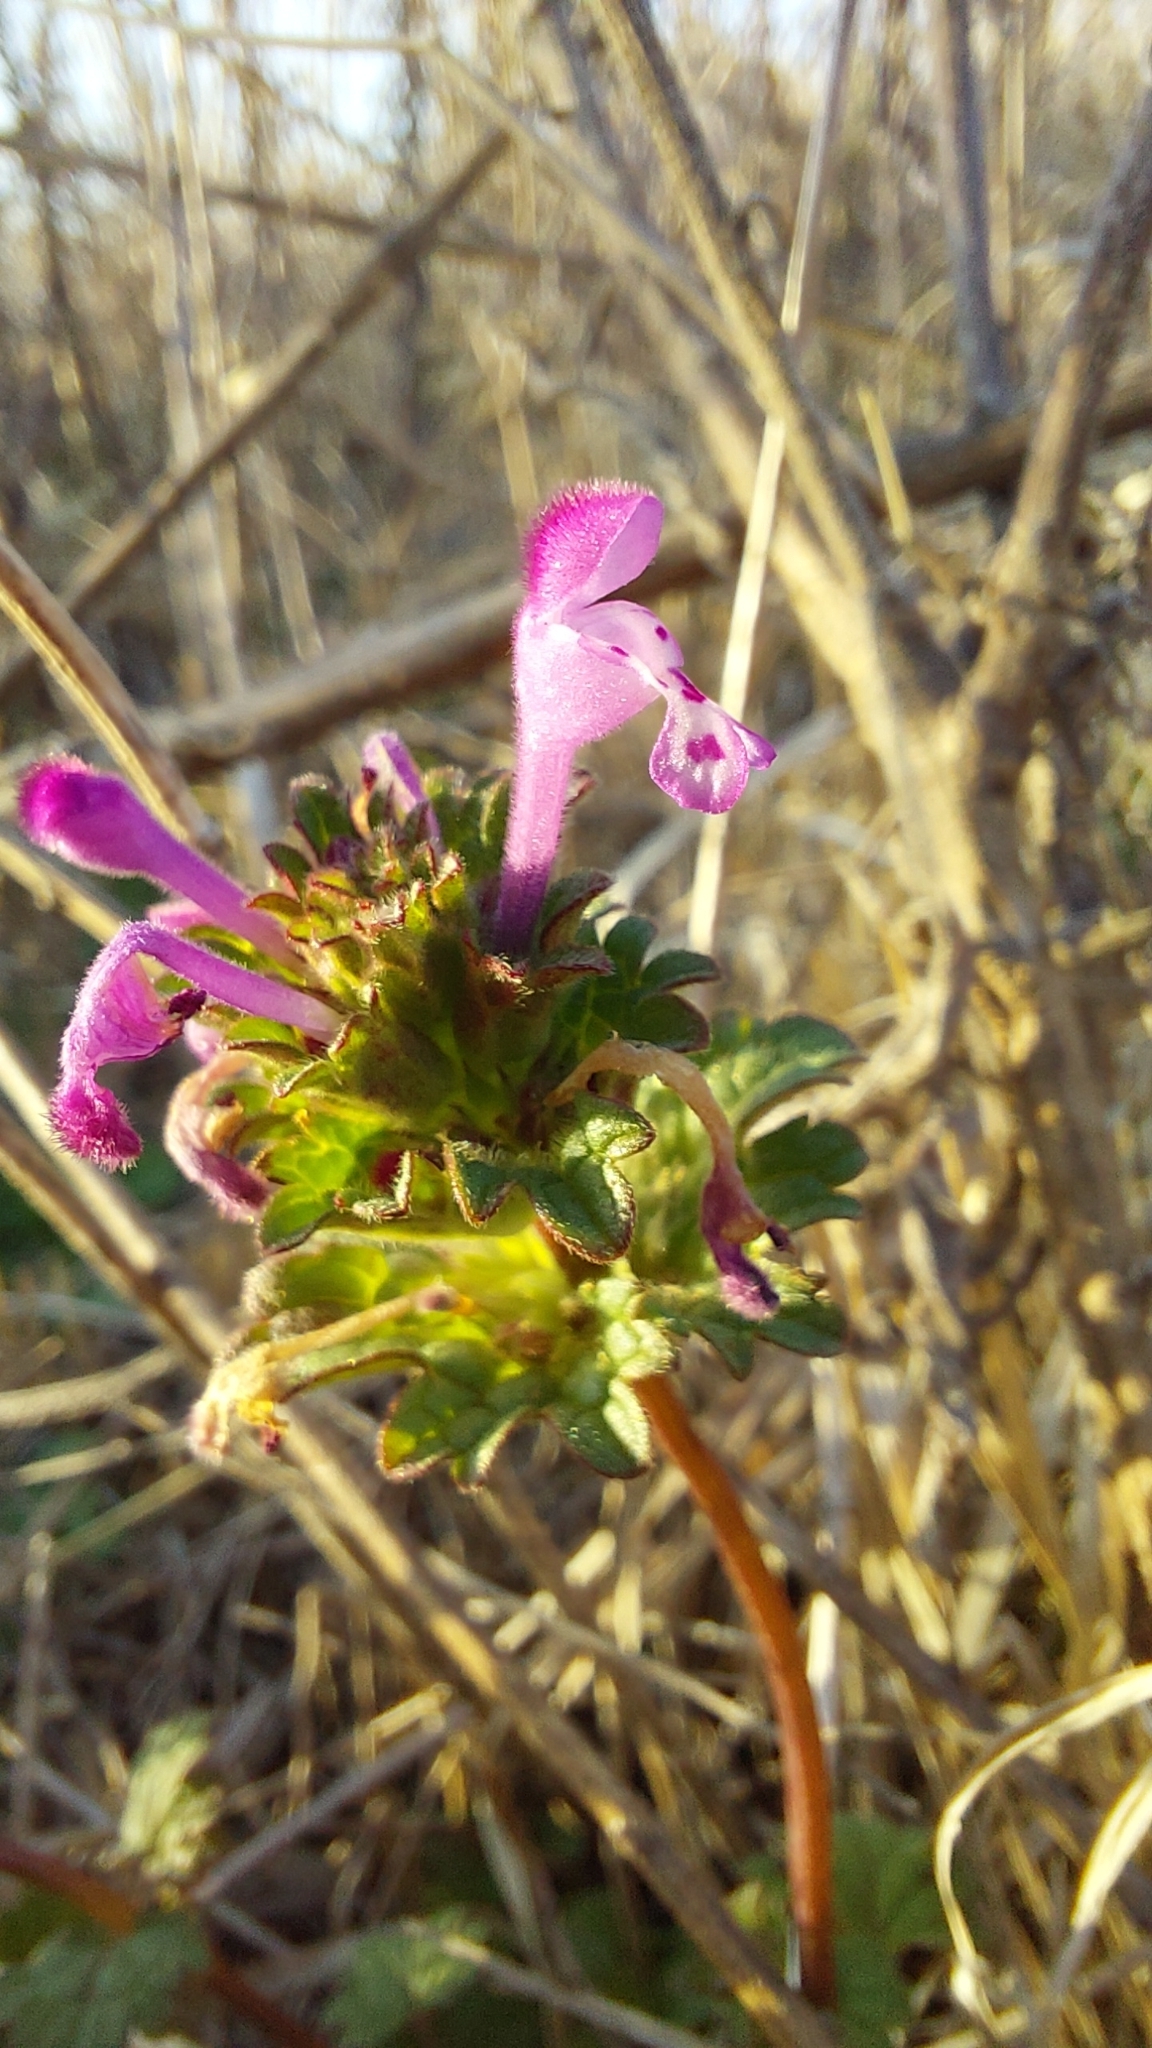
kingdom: Plantae
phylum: Tracheophyta
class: Magnoliopsida
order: Lamiales
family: Lamiaceae
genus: Lamium
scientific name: Lamium amplexicaule
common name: Henbit dead-nettle
